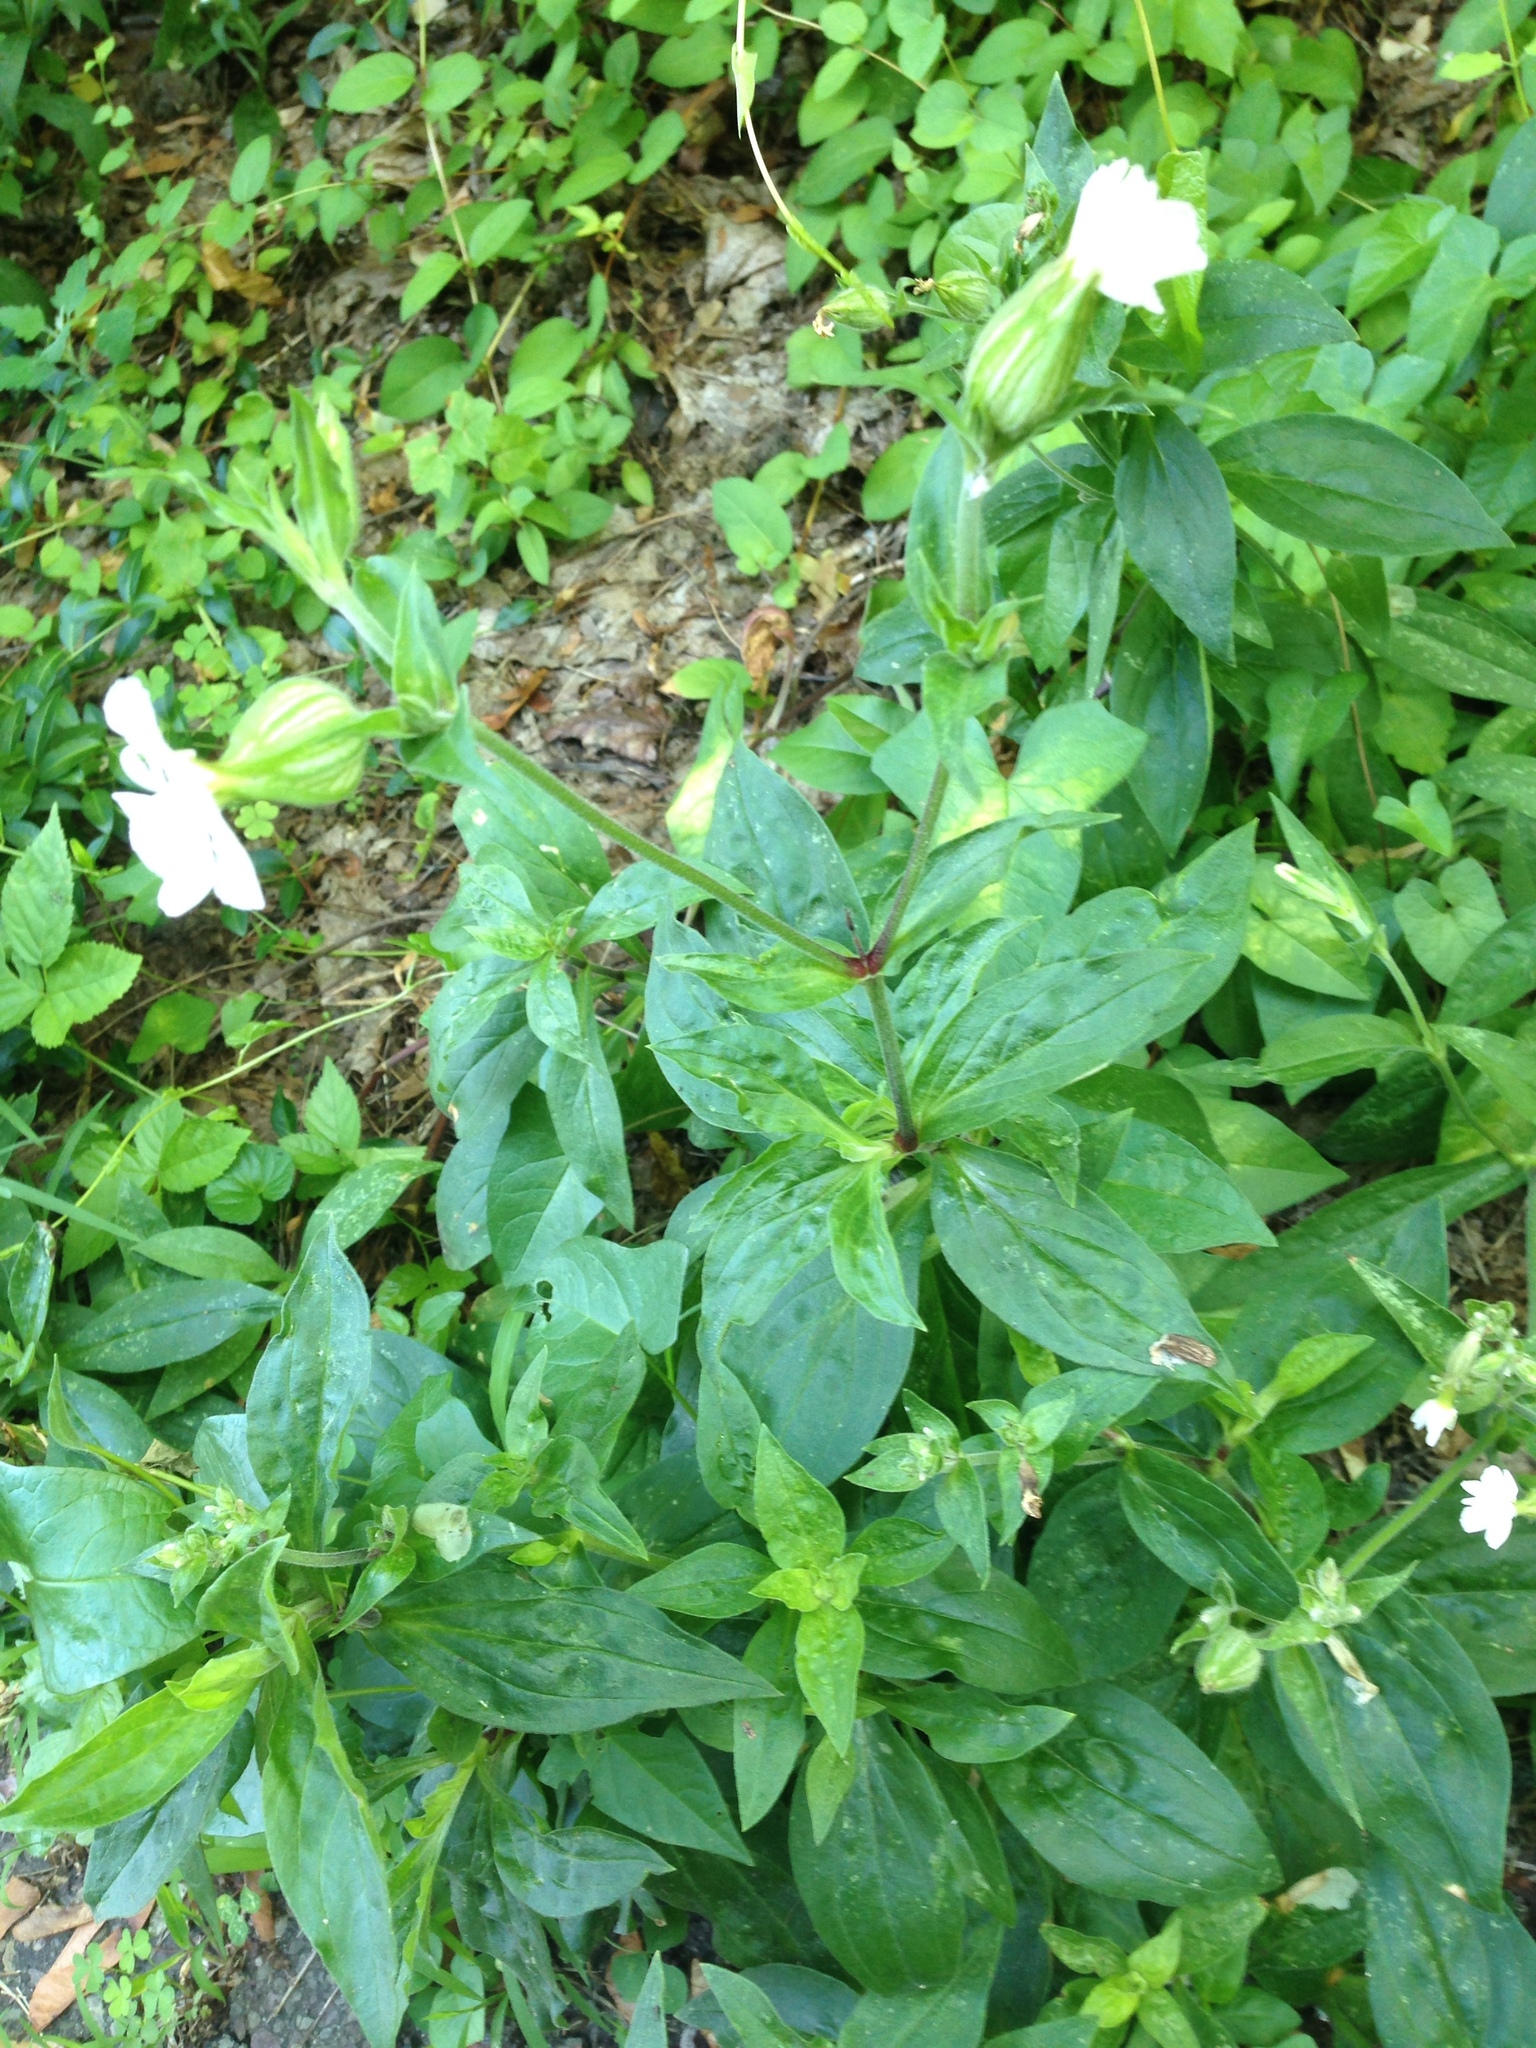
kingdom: Plantae
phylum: Tracheophyta
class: Magnoliopsida
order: Caryophyllales
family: Caryophyllaceae
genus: Silene
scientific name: Silene latifolia
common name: White campion
